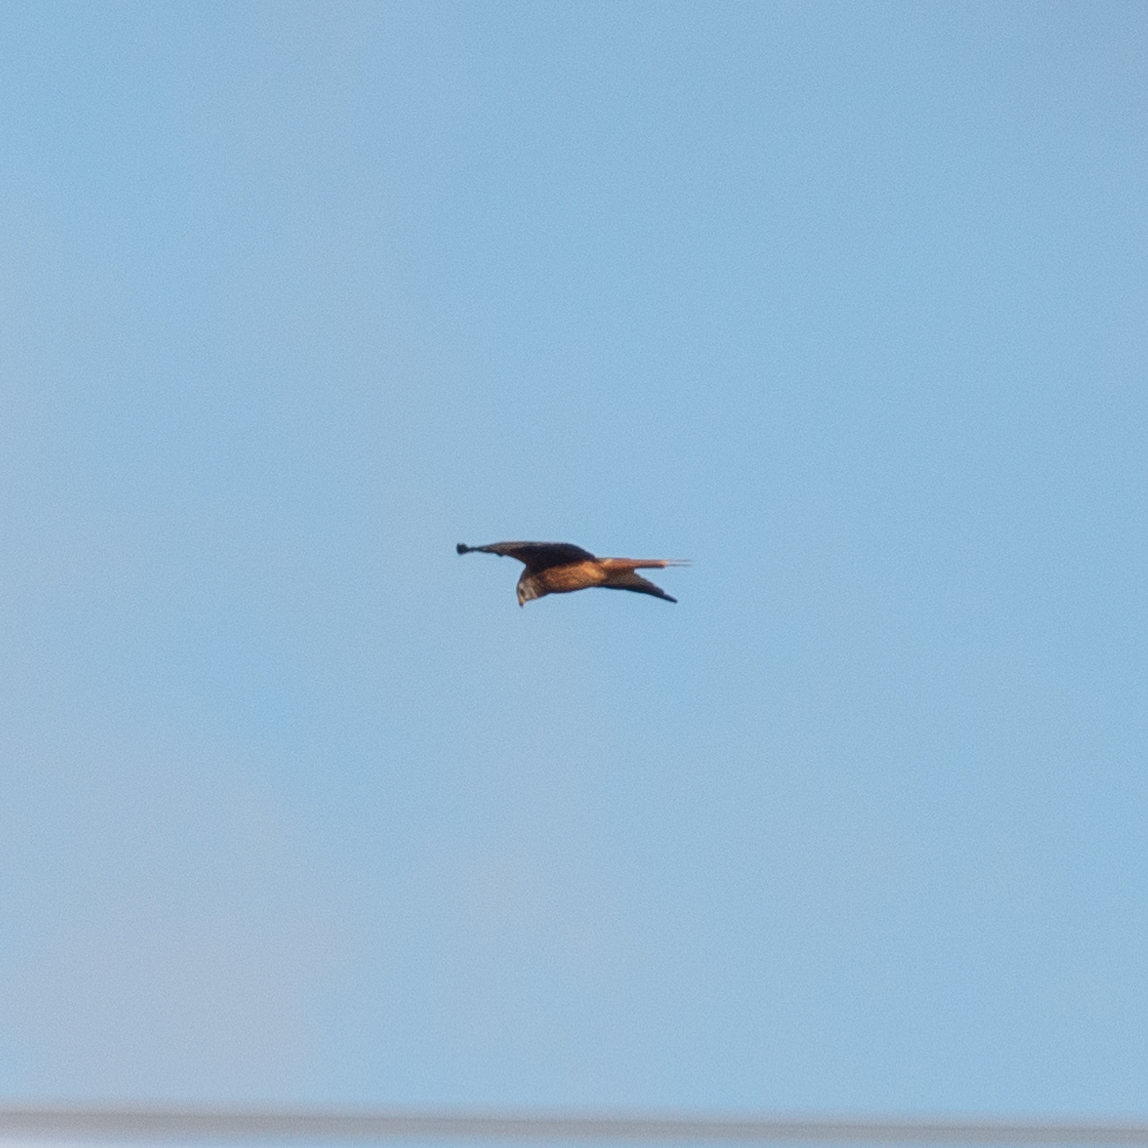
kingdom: Animalia
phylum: Chordata
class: Aves
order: Accipitriformes
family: Accipitridae
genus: Milvus
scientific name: Milvus milvus
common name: Red kite
